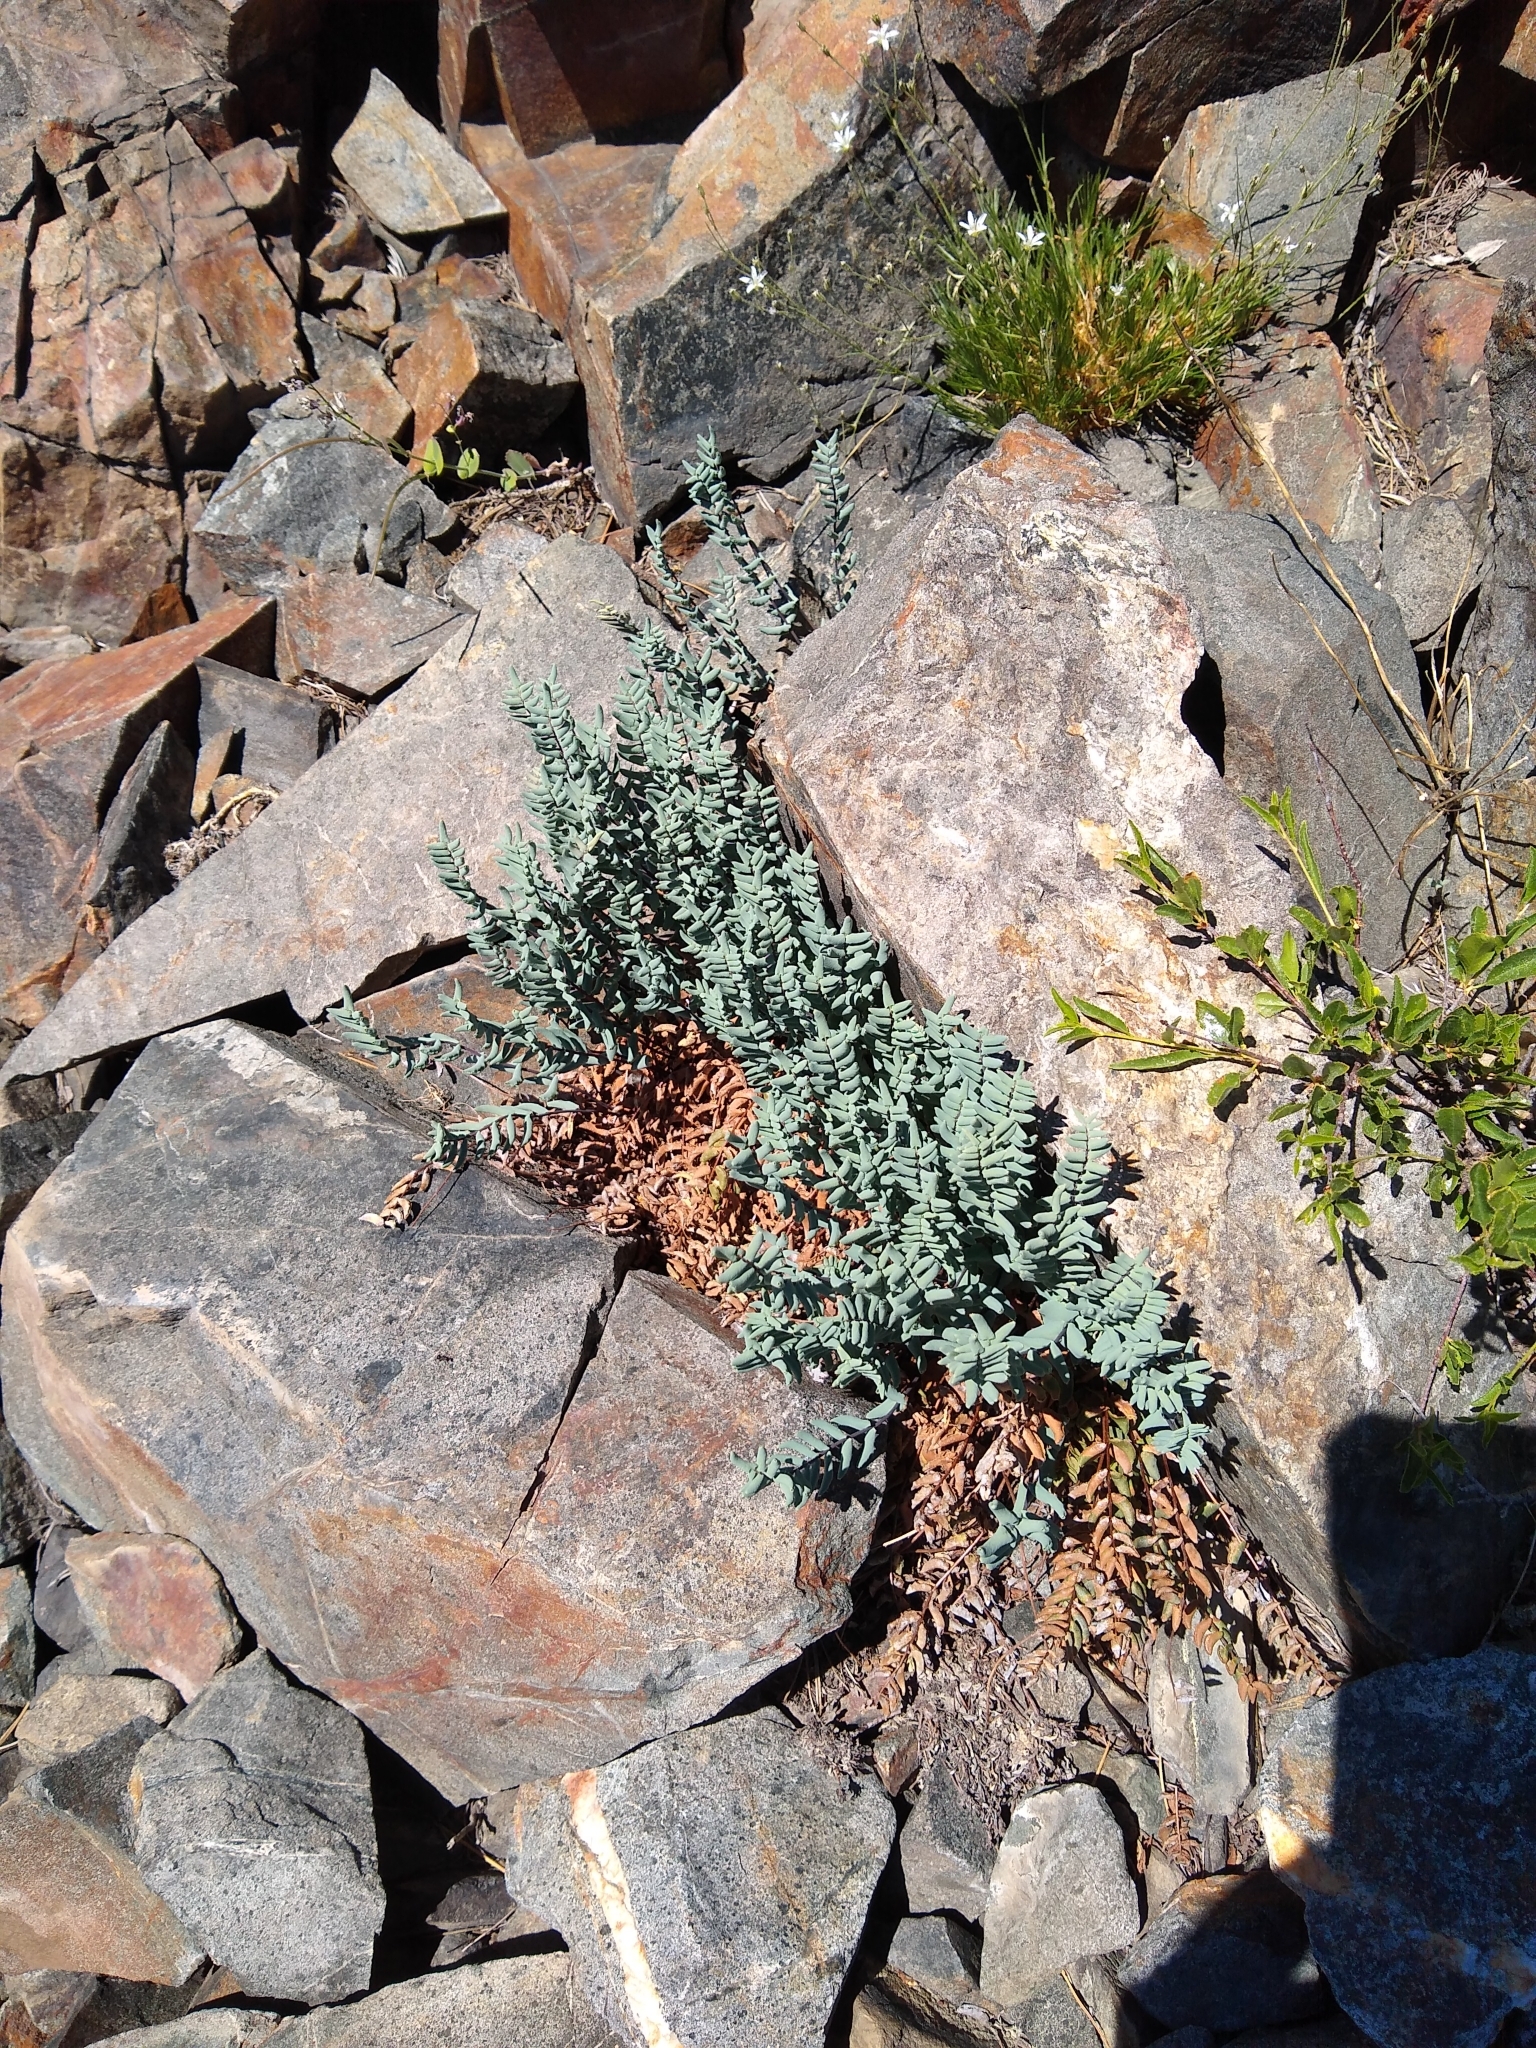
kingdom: Plantae
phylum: Tracheophyta
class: Polypodiopsida
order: Polypodiales
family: Pteridaceae
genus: Pellaea
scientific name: Pellaea bridgesii
